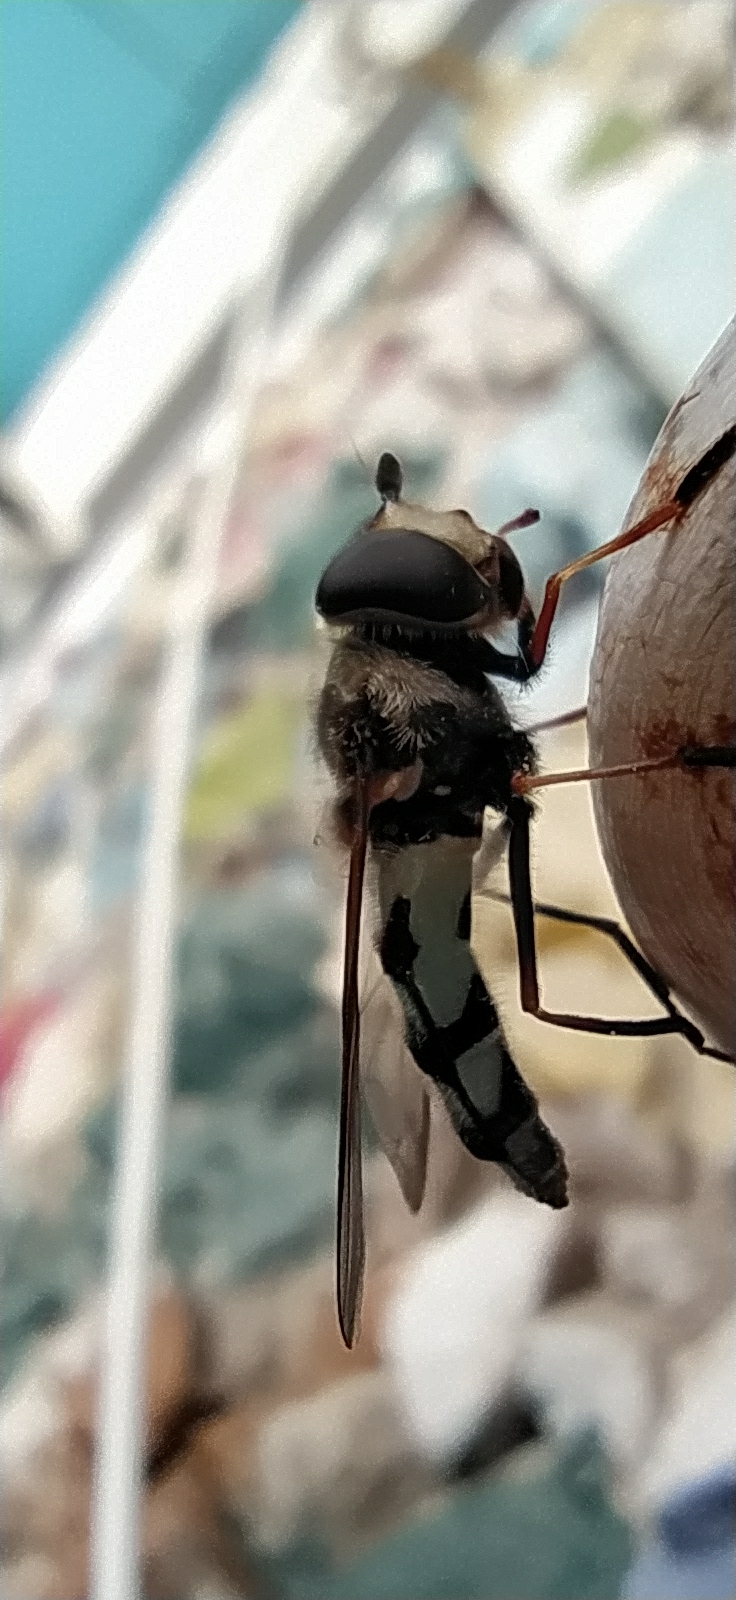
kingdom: Animalia
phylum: Arthropoda
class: Insecta
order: Diptera
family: Syrphidae
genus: Didea
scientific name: Didea alneti
